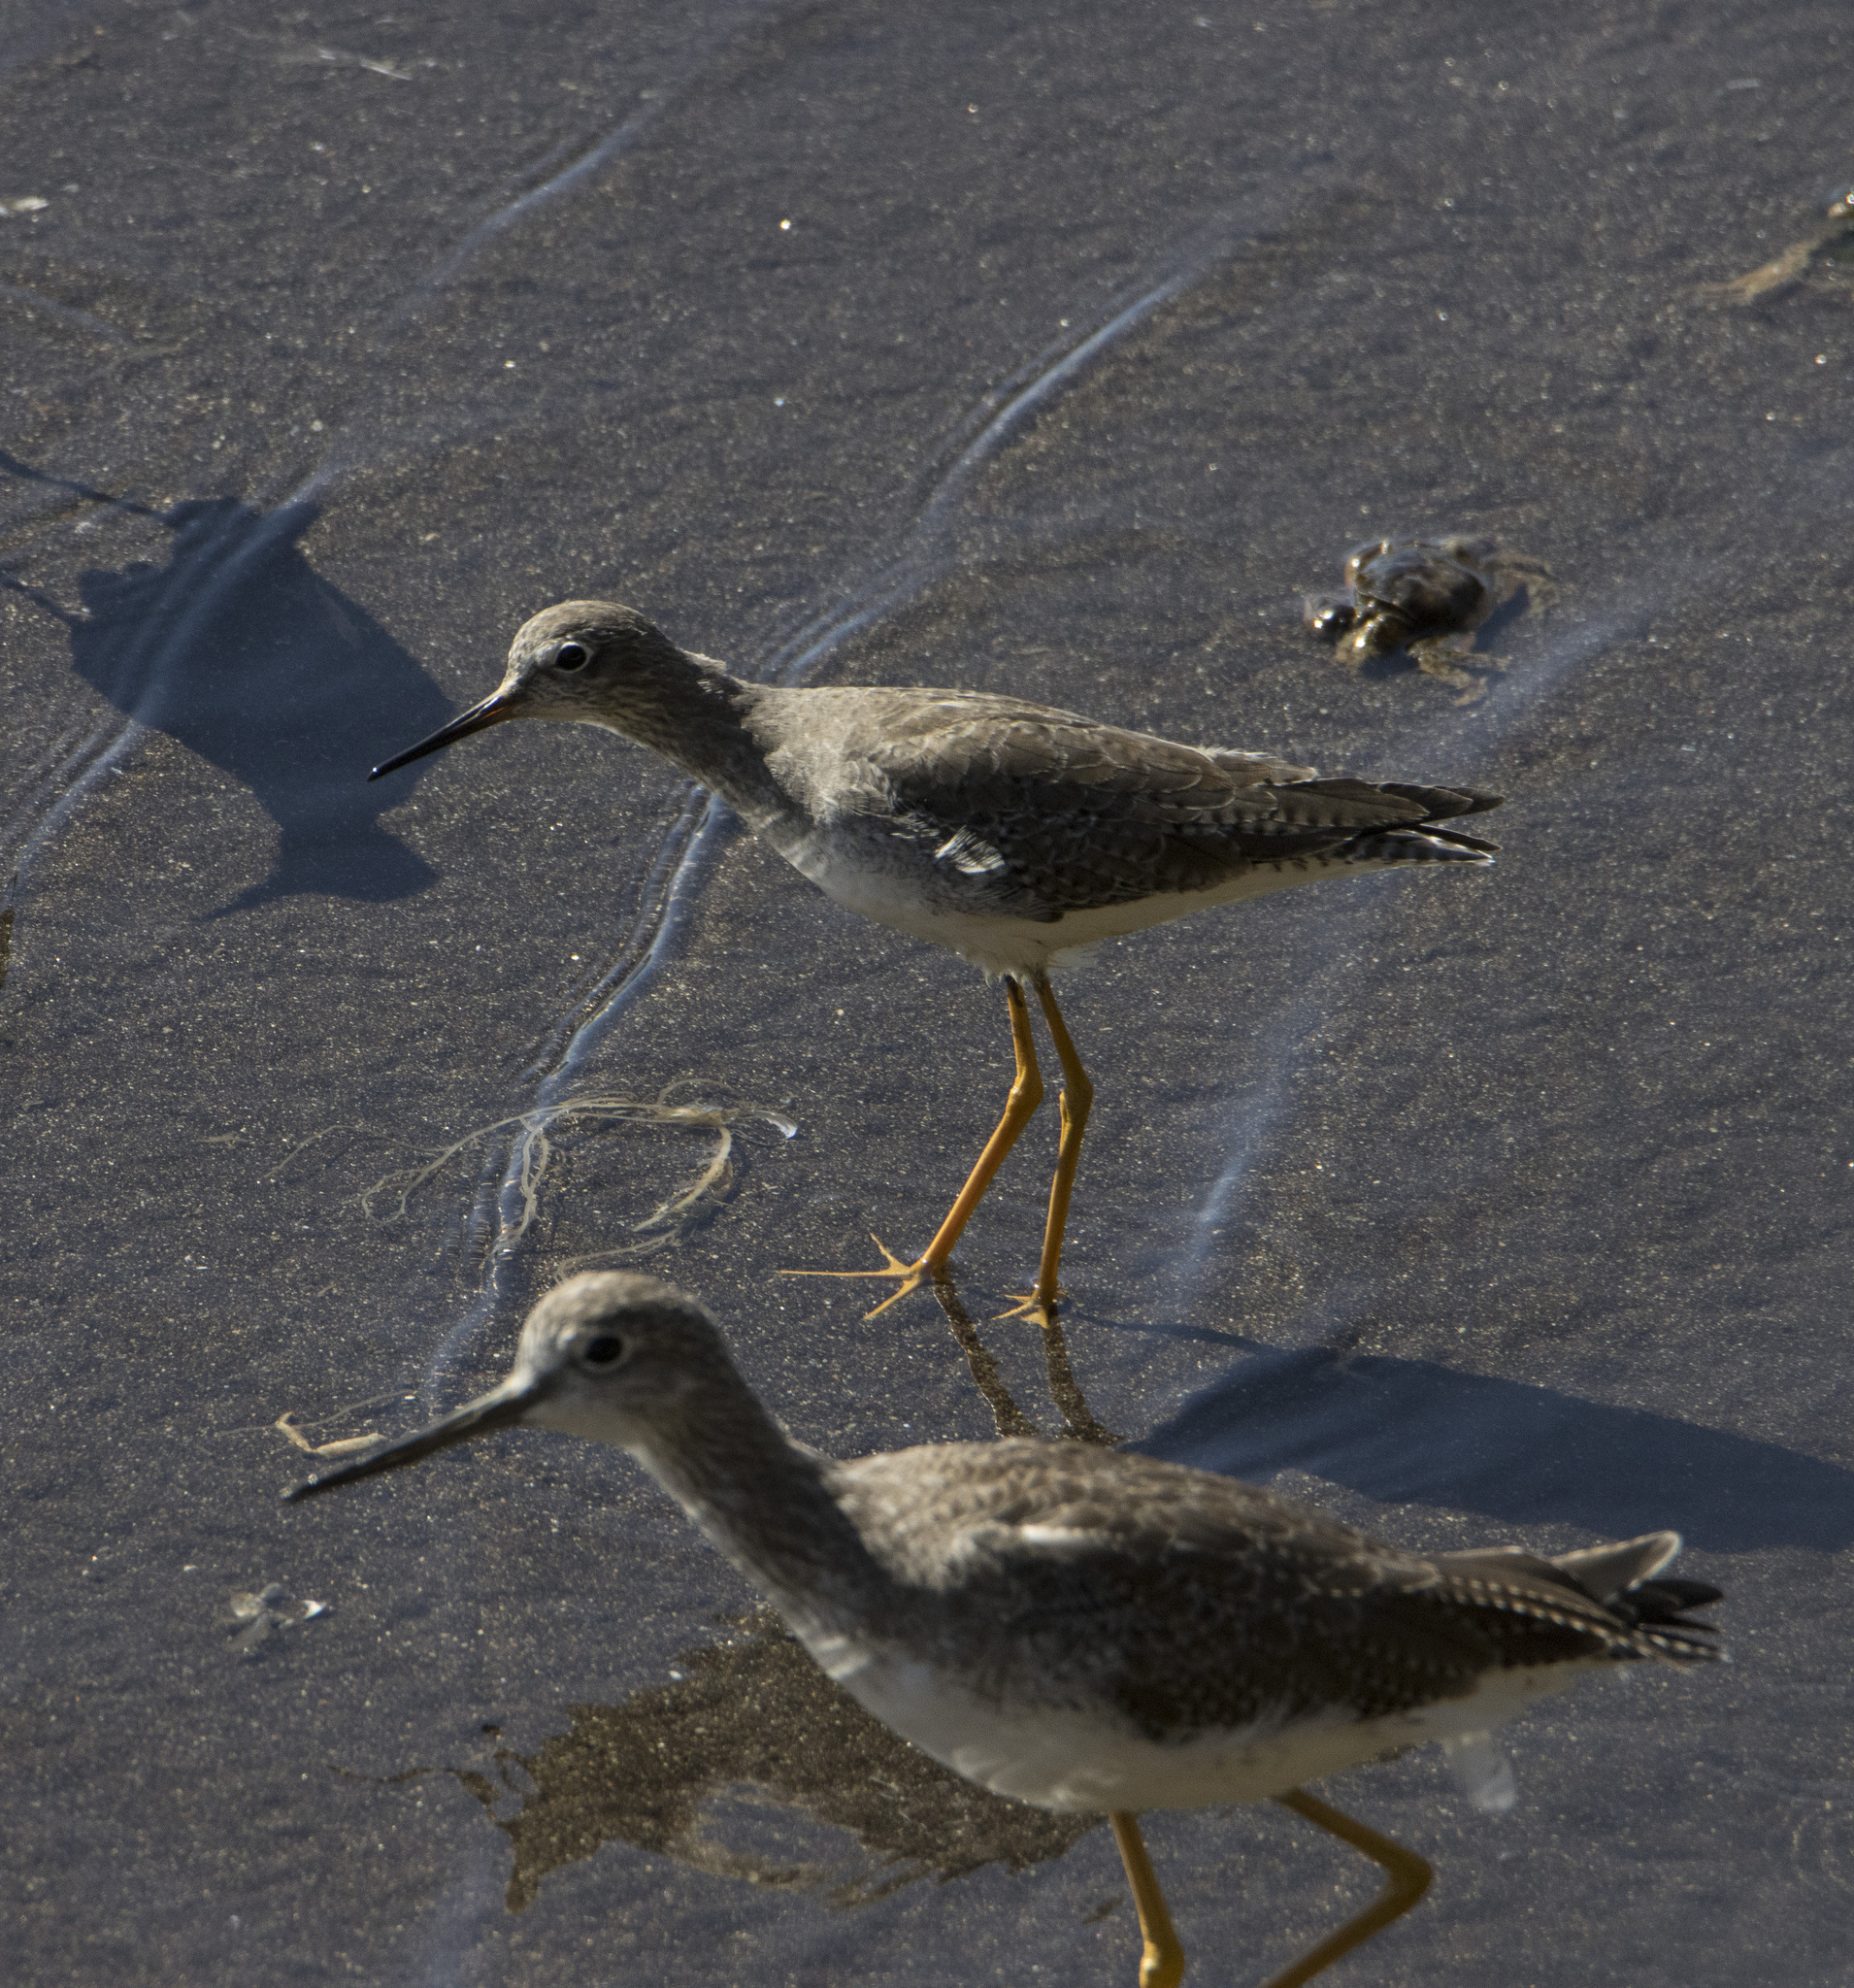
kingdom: Animalia
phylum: Chordata
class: Aves
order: Charadriiformes
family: Scolopacidae
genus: Tringa
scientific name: Tringa flavipes
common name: Lesser yellowlegs
